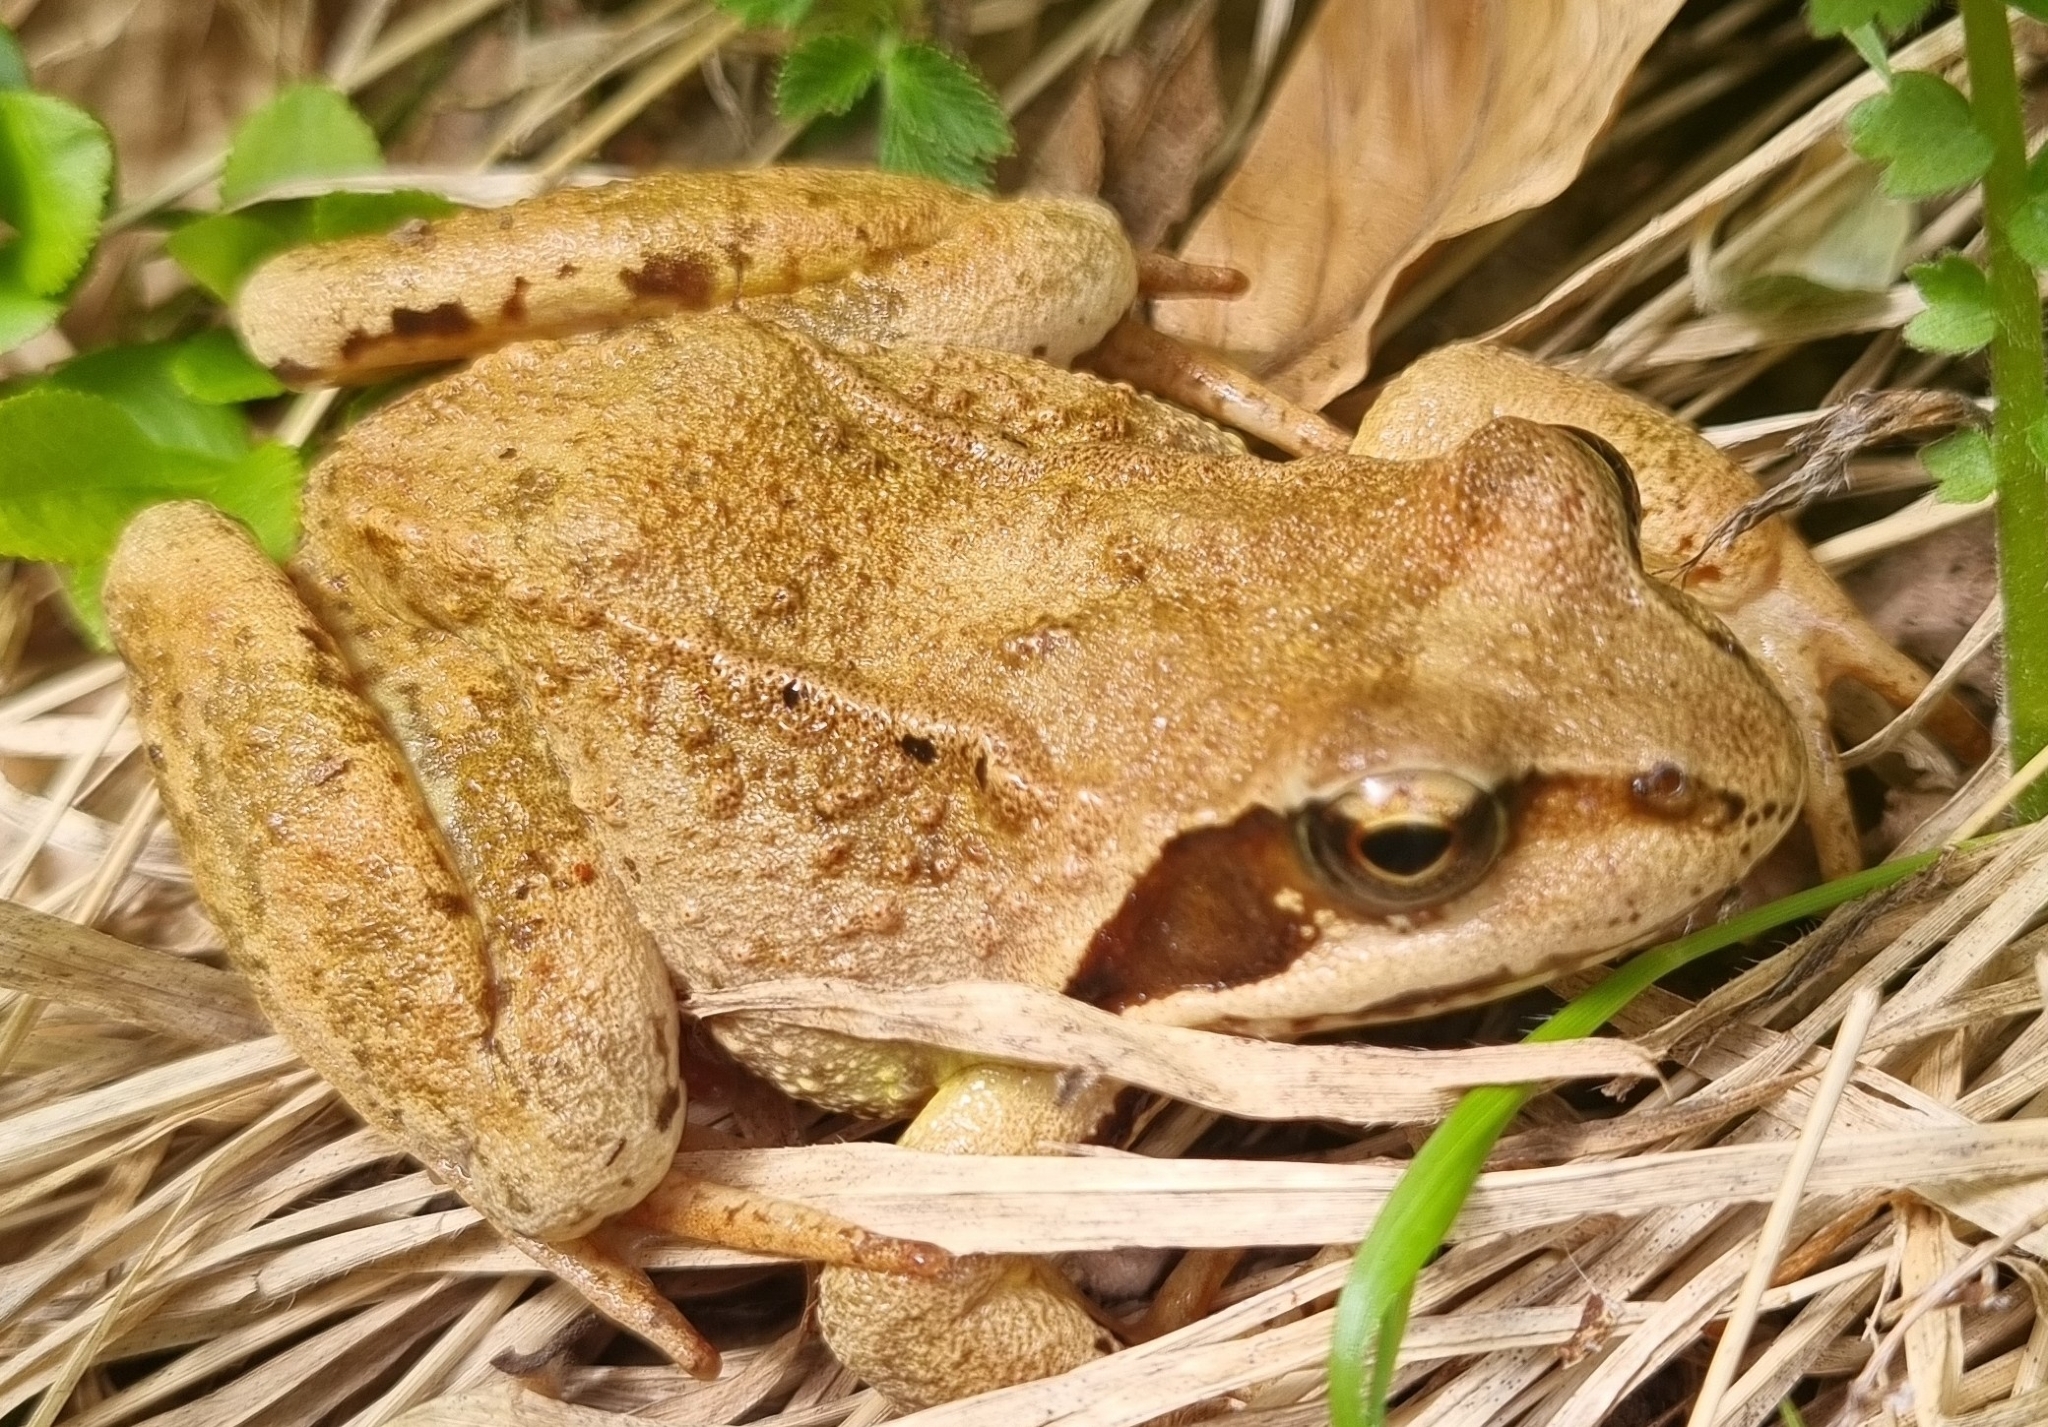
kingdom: Animalia
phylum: Chordata
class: Amphibia
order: Anura
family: Ranidae
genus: Rana
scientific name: Rana temporaria
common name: Common frog
